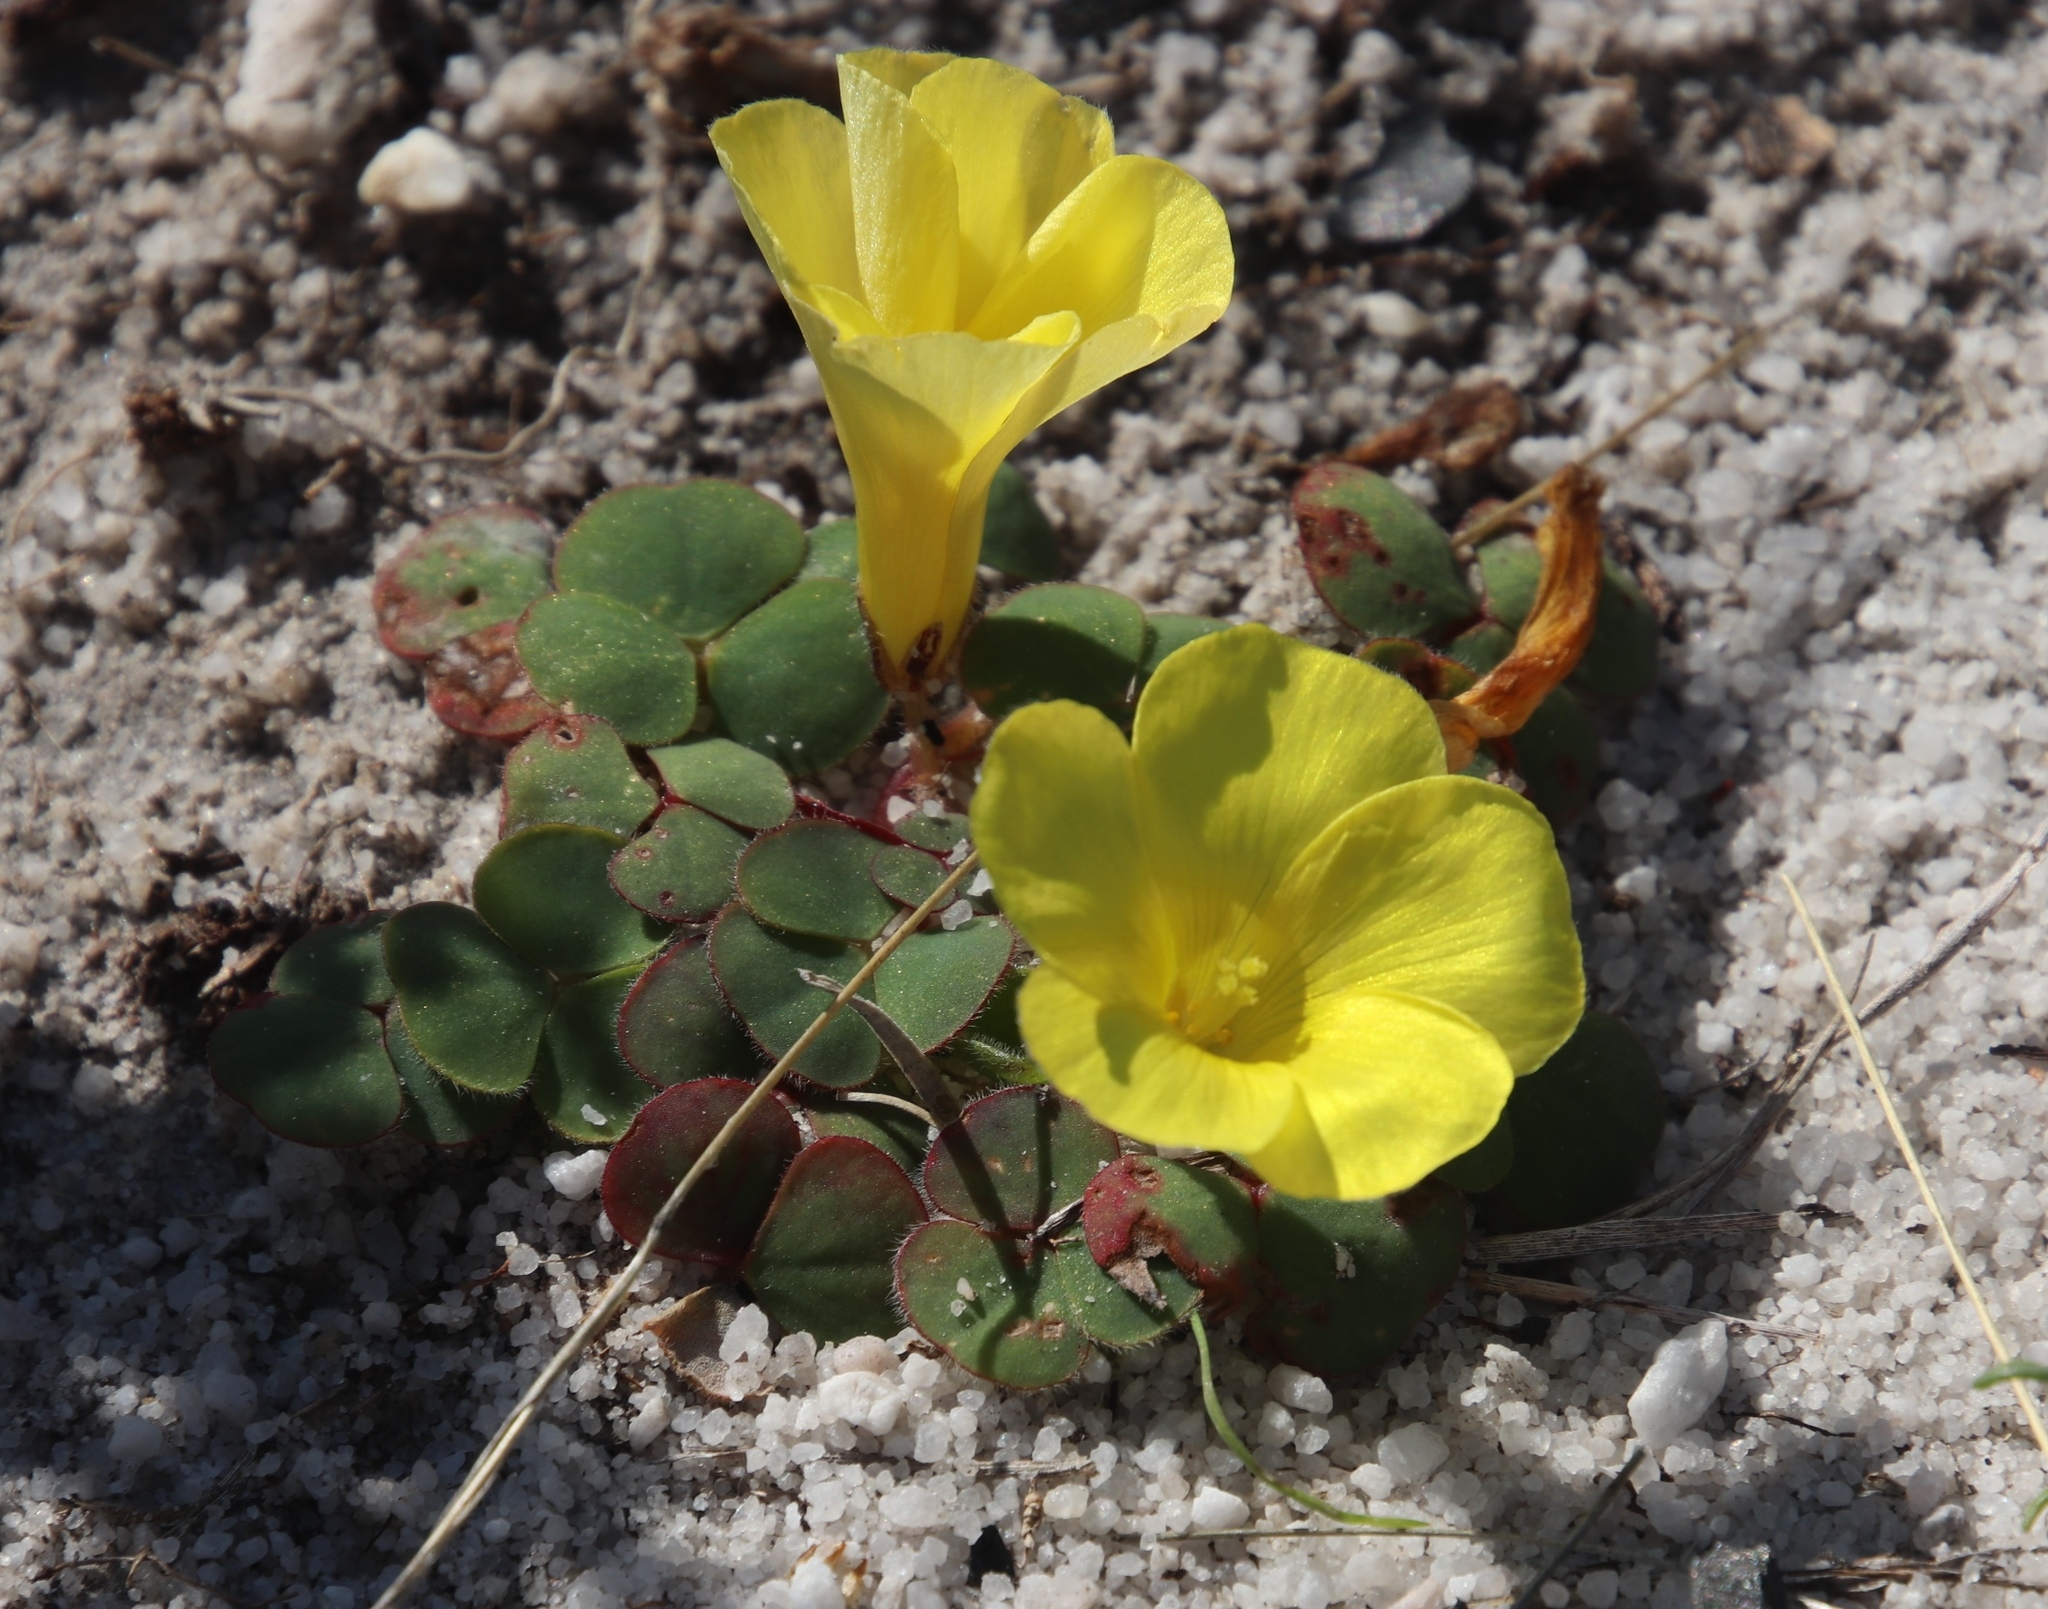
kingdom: Plantae
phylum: Tracheophyta
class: Magnoliopsida
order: Oxalidales
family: Oxalidaceae
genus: Oxalis
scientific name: Oxalis luteola
